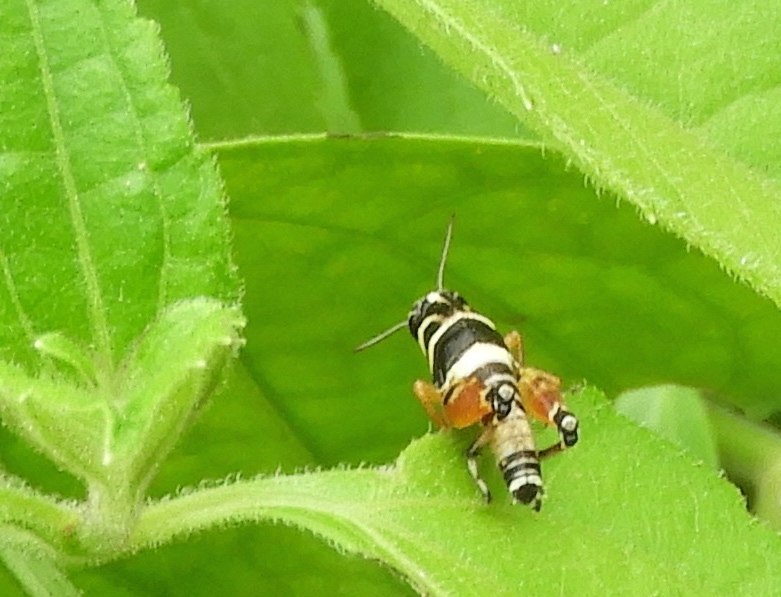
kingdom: Animalia
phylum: Arthropoda
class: Insecta
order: Orthoptera
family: Acrididae
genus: Aidemona
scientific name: Aidemona azteca
